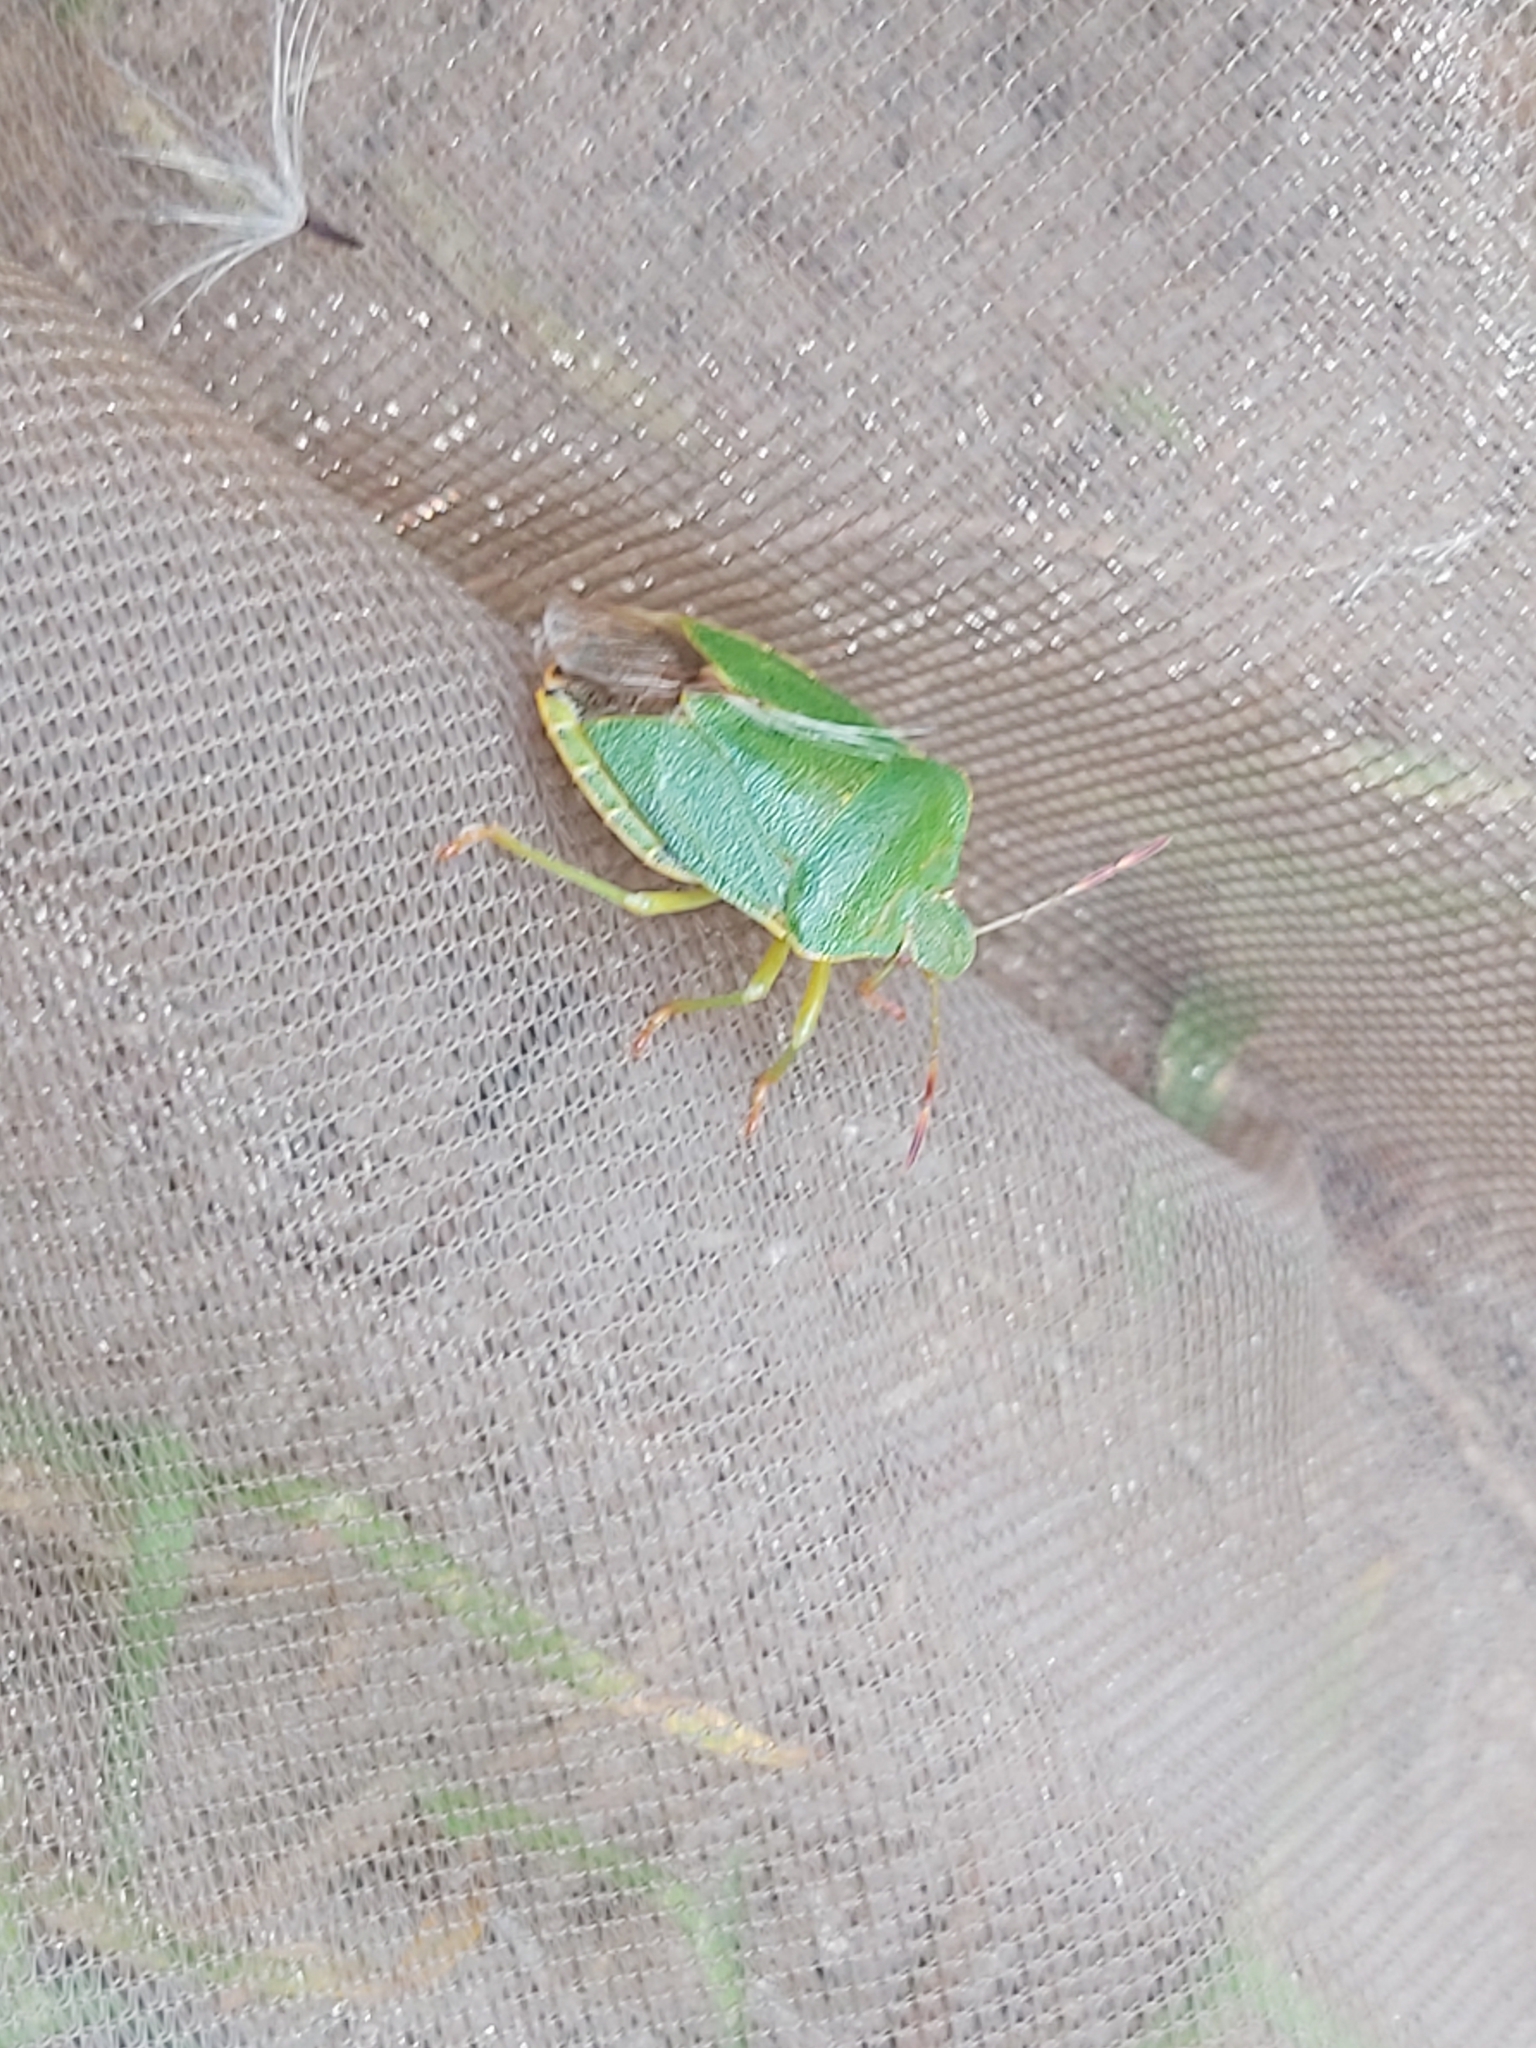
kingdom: Animalia
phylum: Arthropoda
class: Insecta
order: Hemiptera
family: Pentatomidae
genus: Palomena
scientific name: Palomena prasina
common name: Green shieldbug
